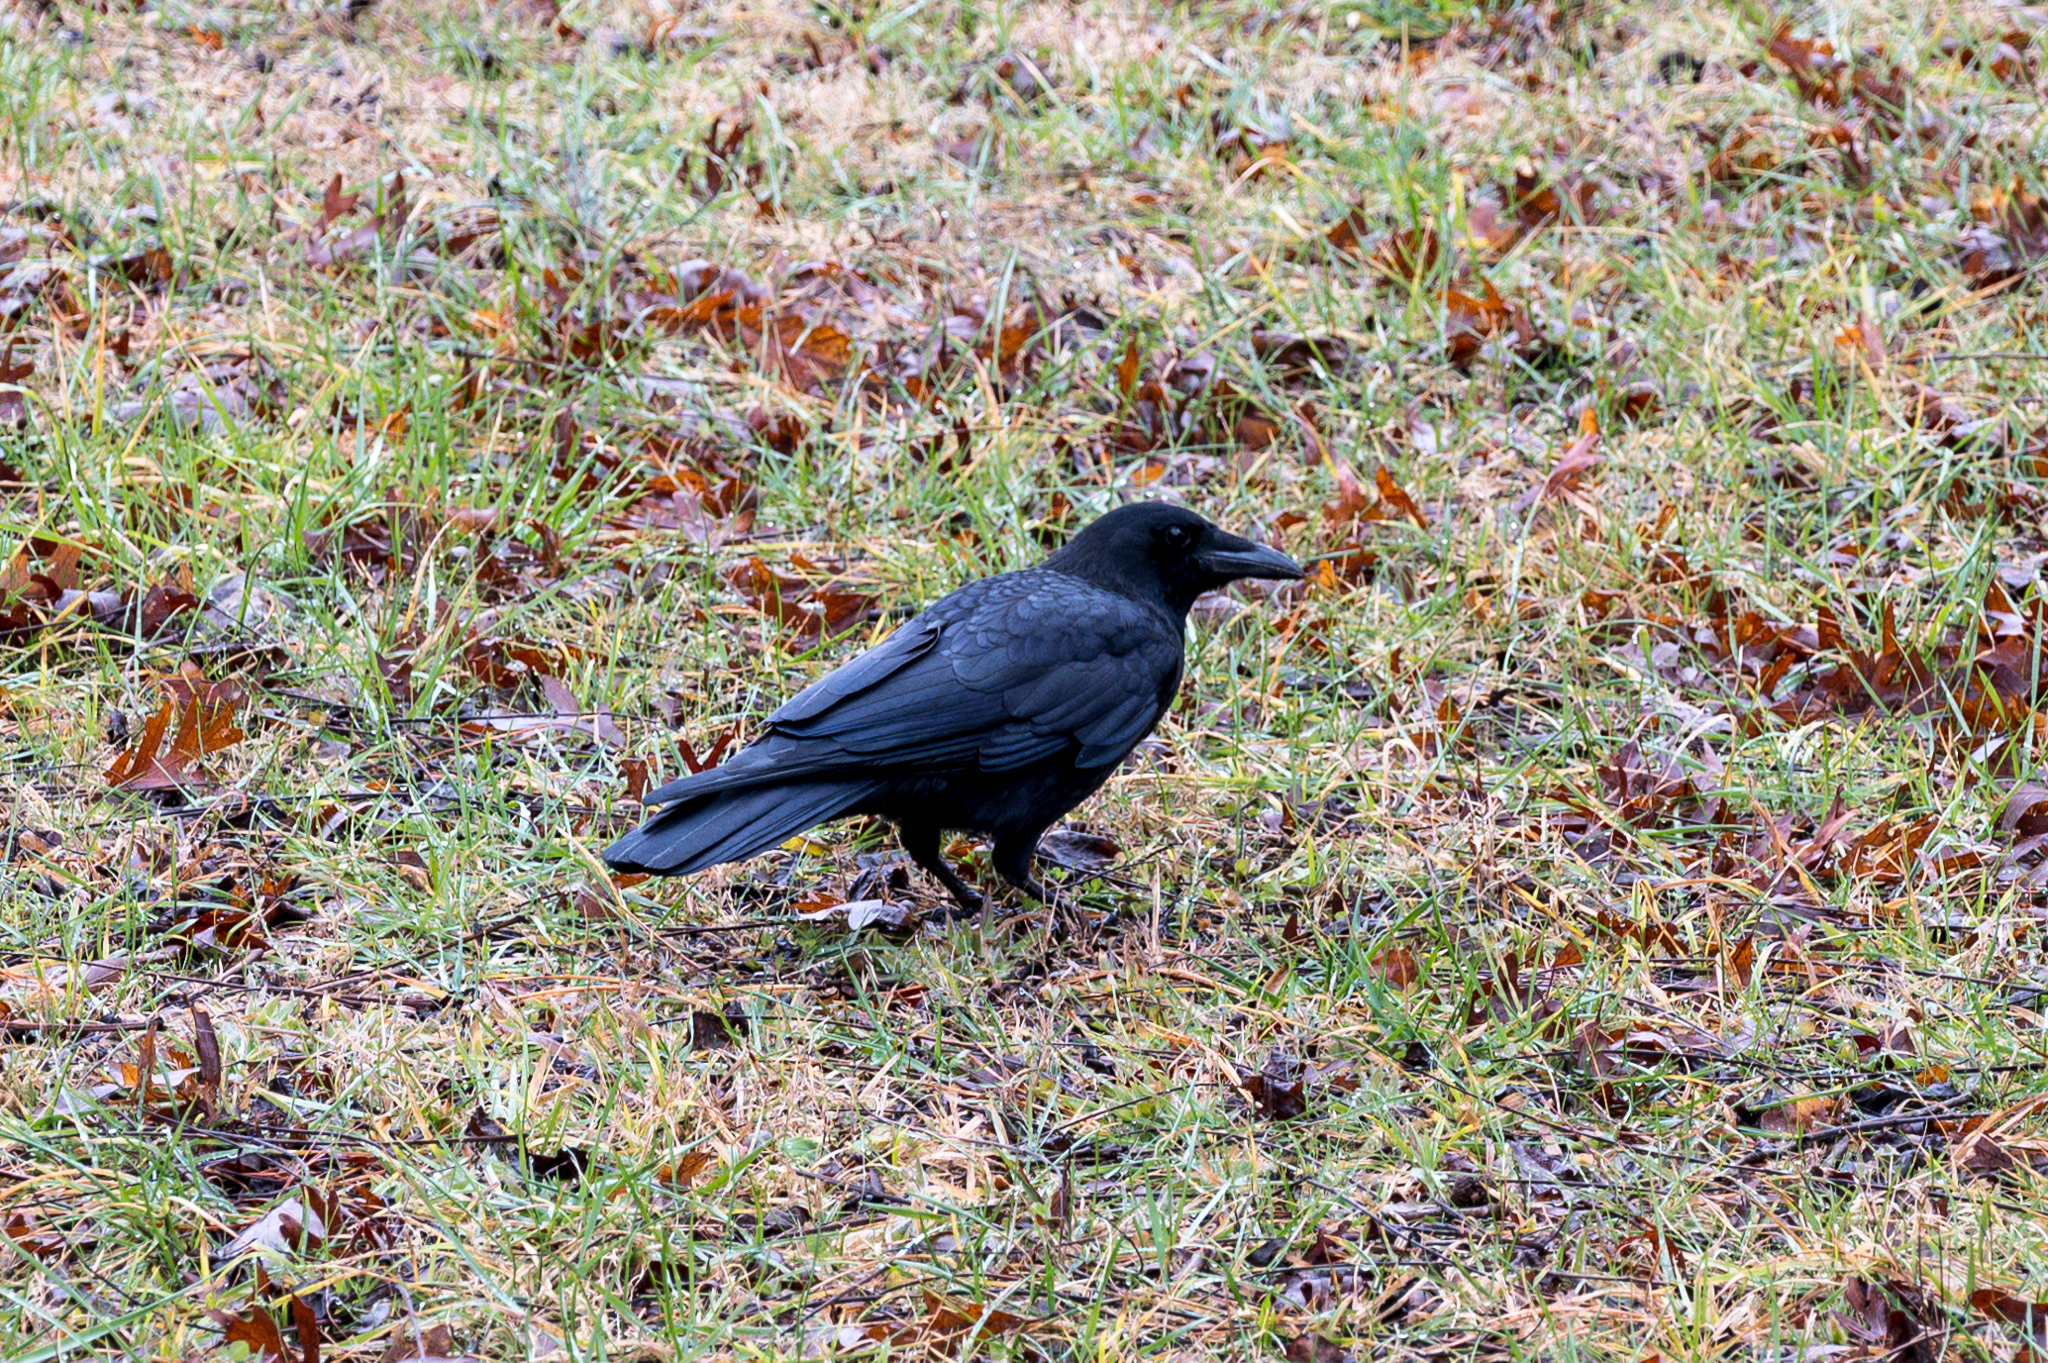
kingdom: Animalia
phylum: Chordata
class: Aves
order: Passeriformes
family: Corvidae
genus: Corvus
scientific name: Corvus brachyrhynchos
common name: American crow
